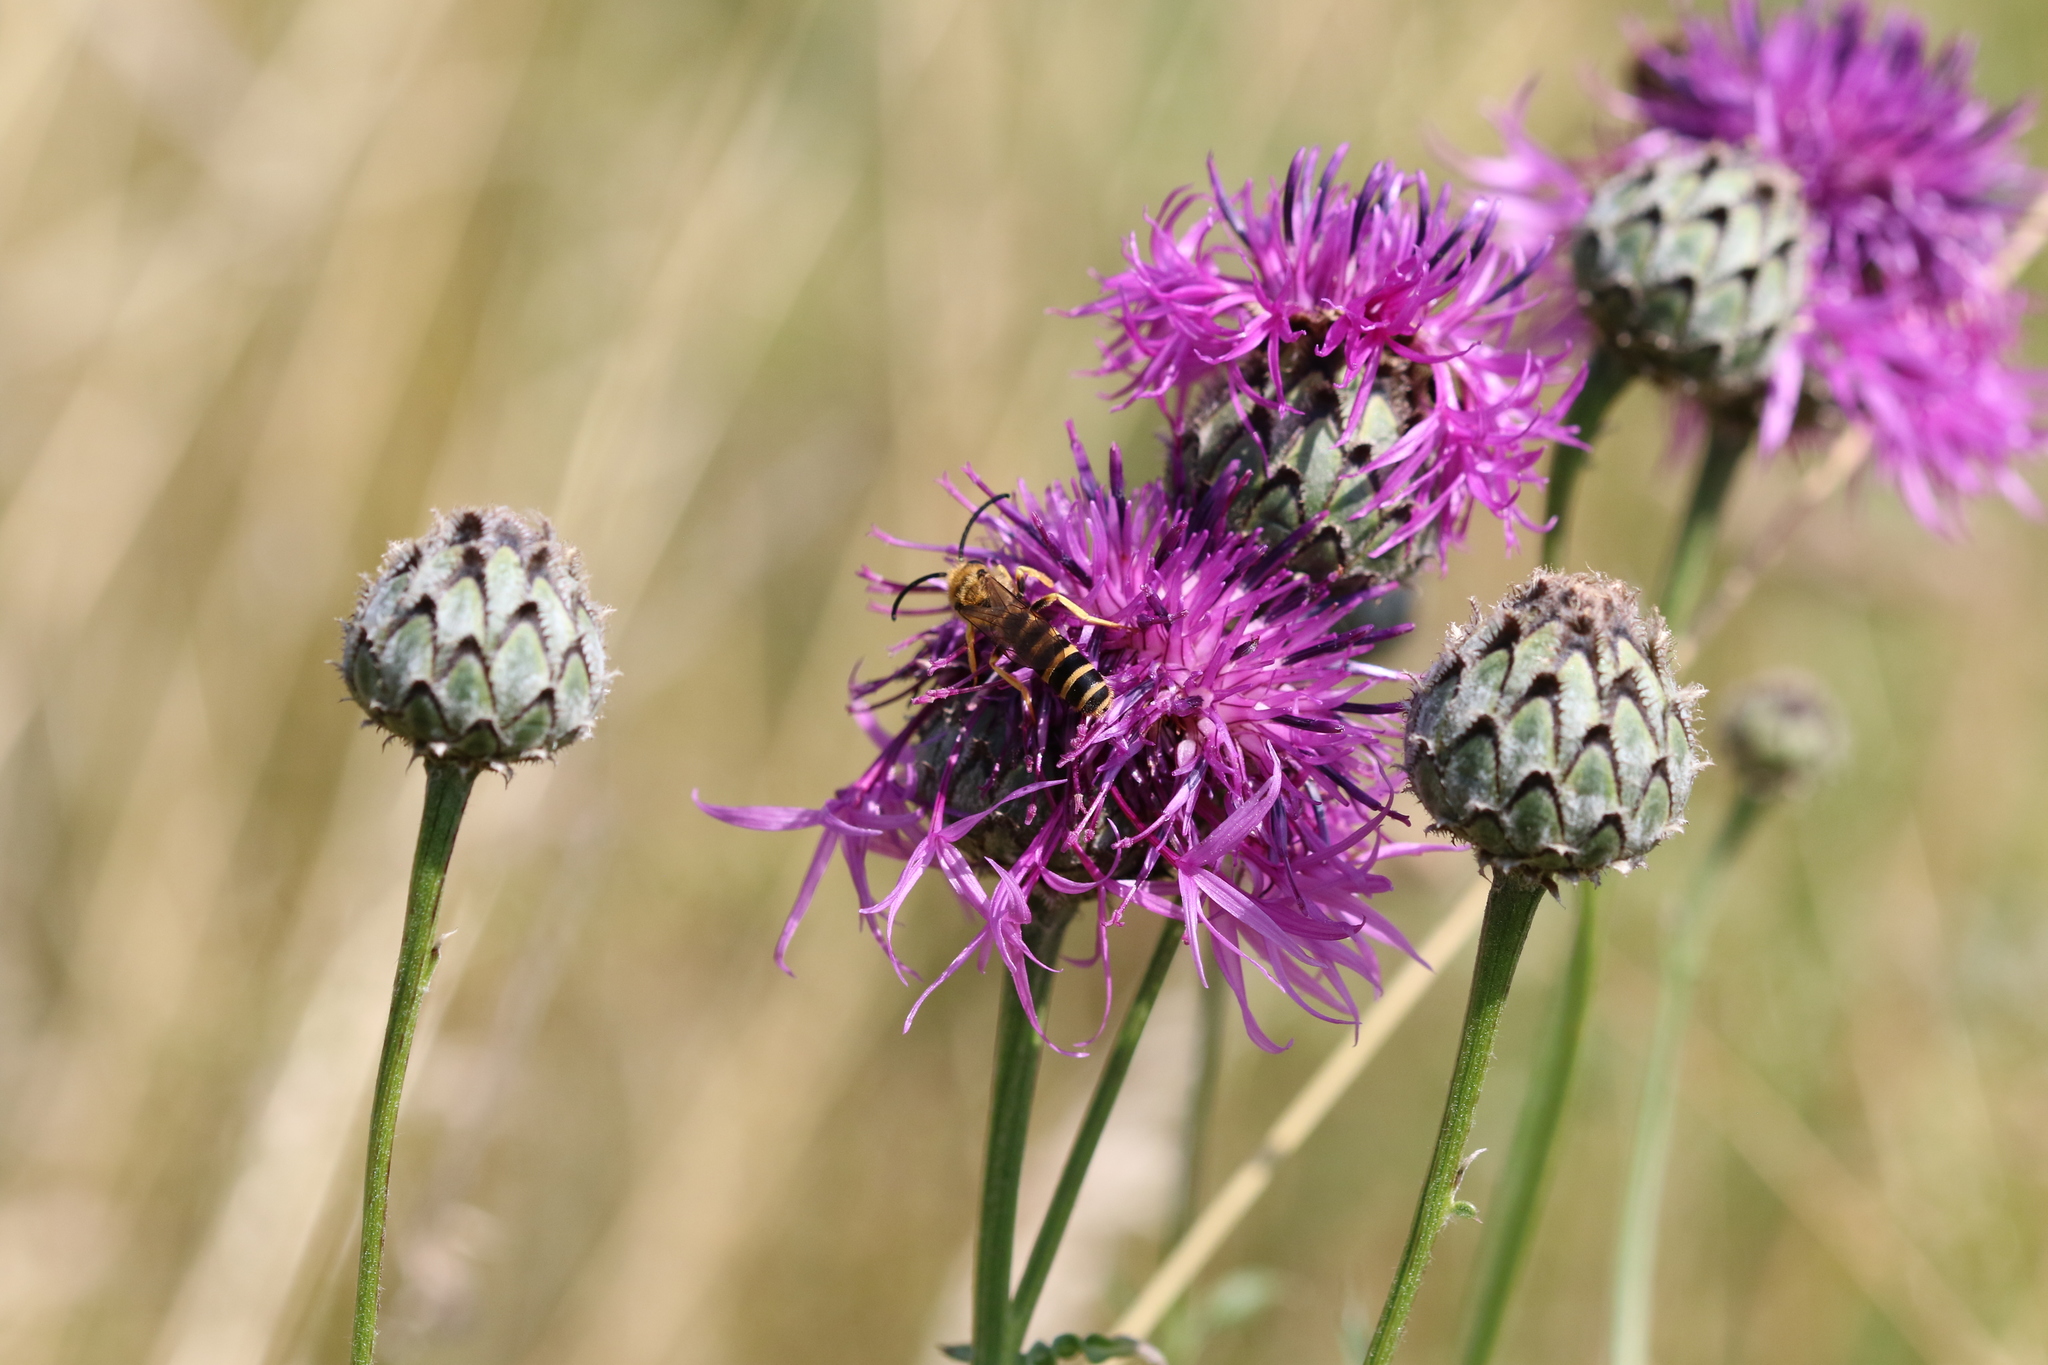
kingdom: Animalia
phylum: Arthropoda
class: Insecta
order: Hymenoptera
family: Halictidae
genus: Halictus
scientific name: Halictus scabiosae
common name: Great banded furrow bee
